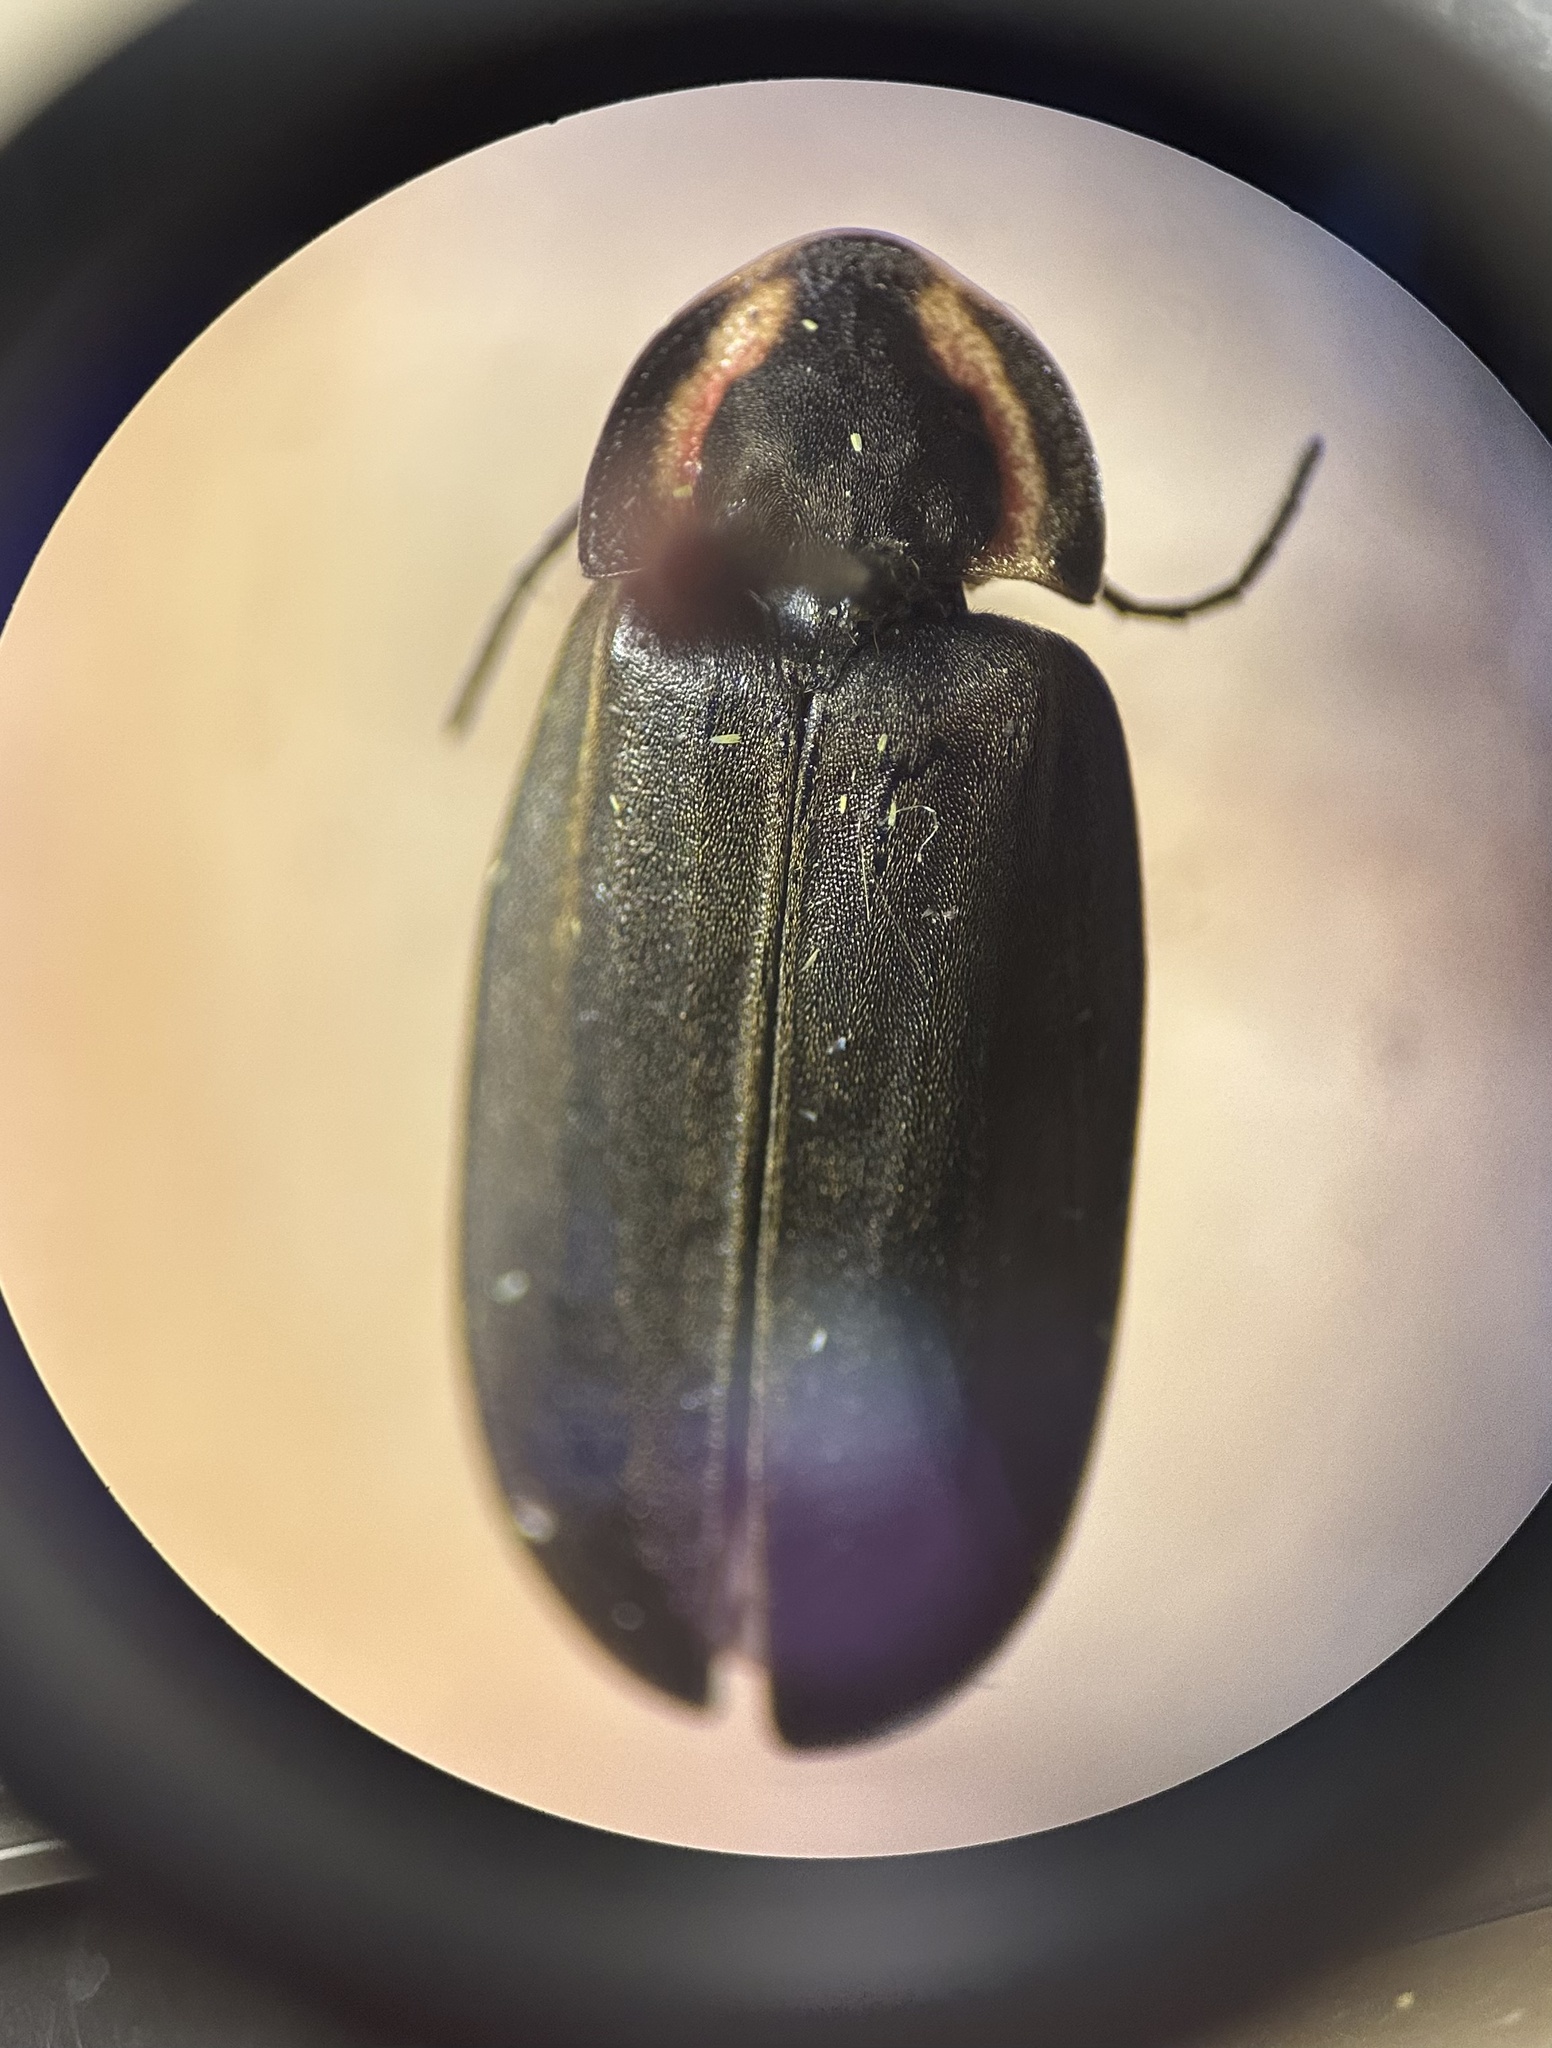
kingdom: Animalia
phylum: Arthropoda
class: Insecta
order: Coleoptera
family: Lampyridae
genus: Photinus
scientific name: Photinus corrusca
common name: Winter firefly
